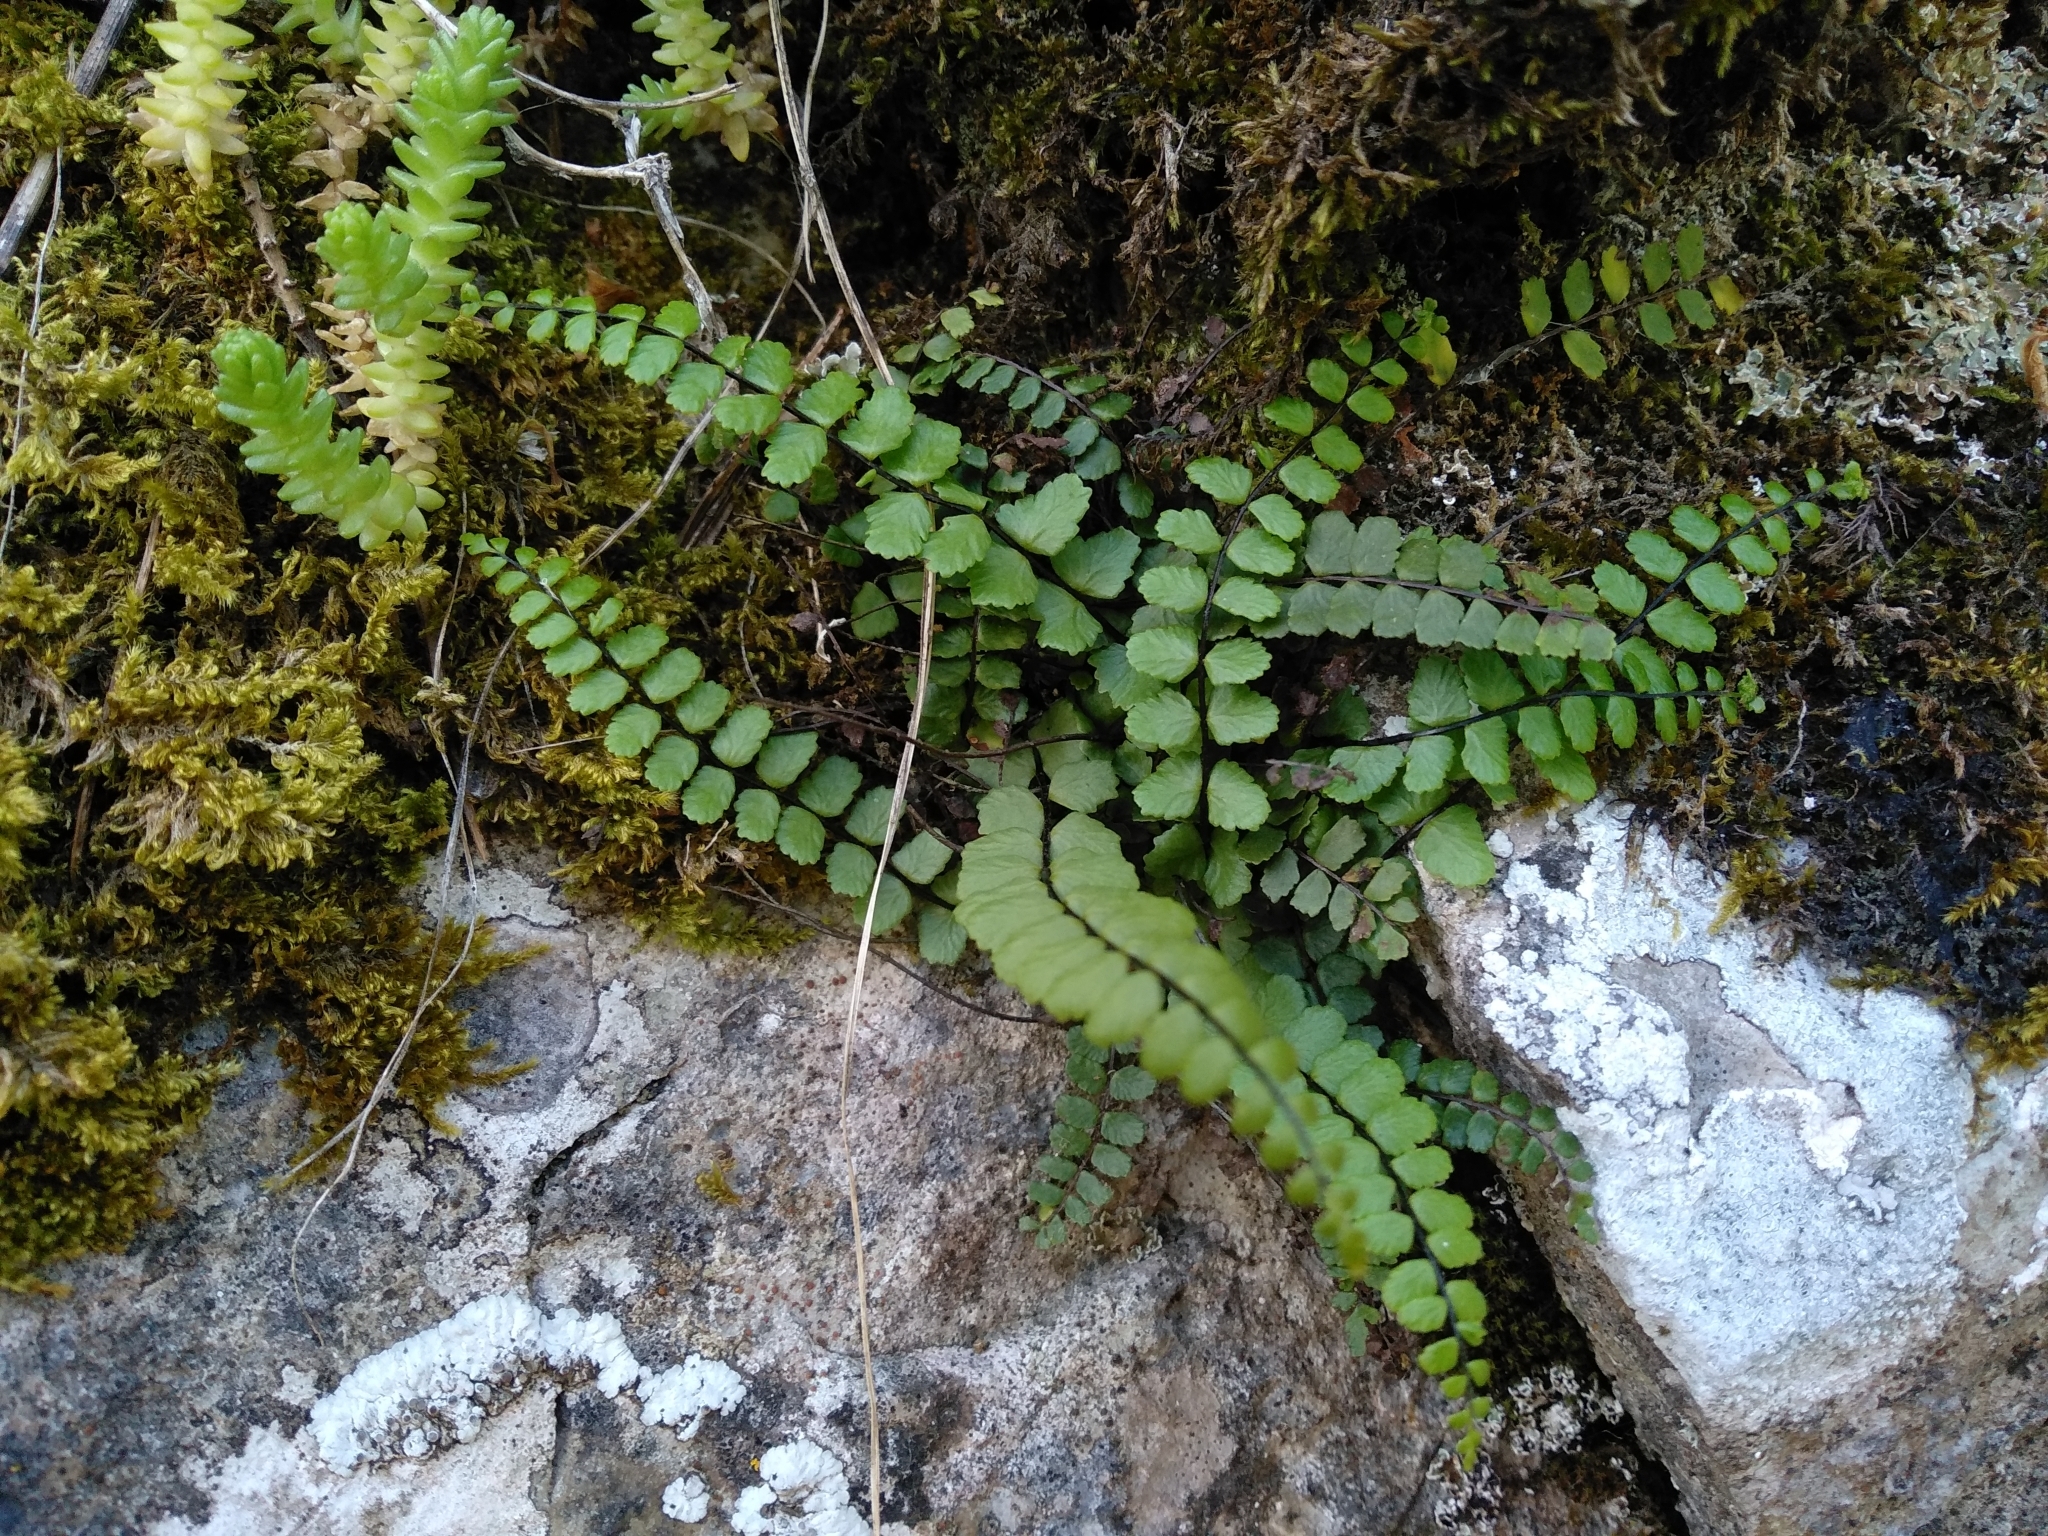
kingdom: Plantae
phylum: Tracheophyta
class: Polypodiopsida
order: Polypodiales
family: Aspleniaceae
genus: Asplenium
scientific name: Asplenium trichomanes
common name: Maidenhair spleenwort
